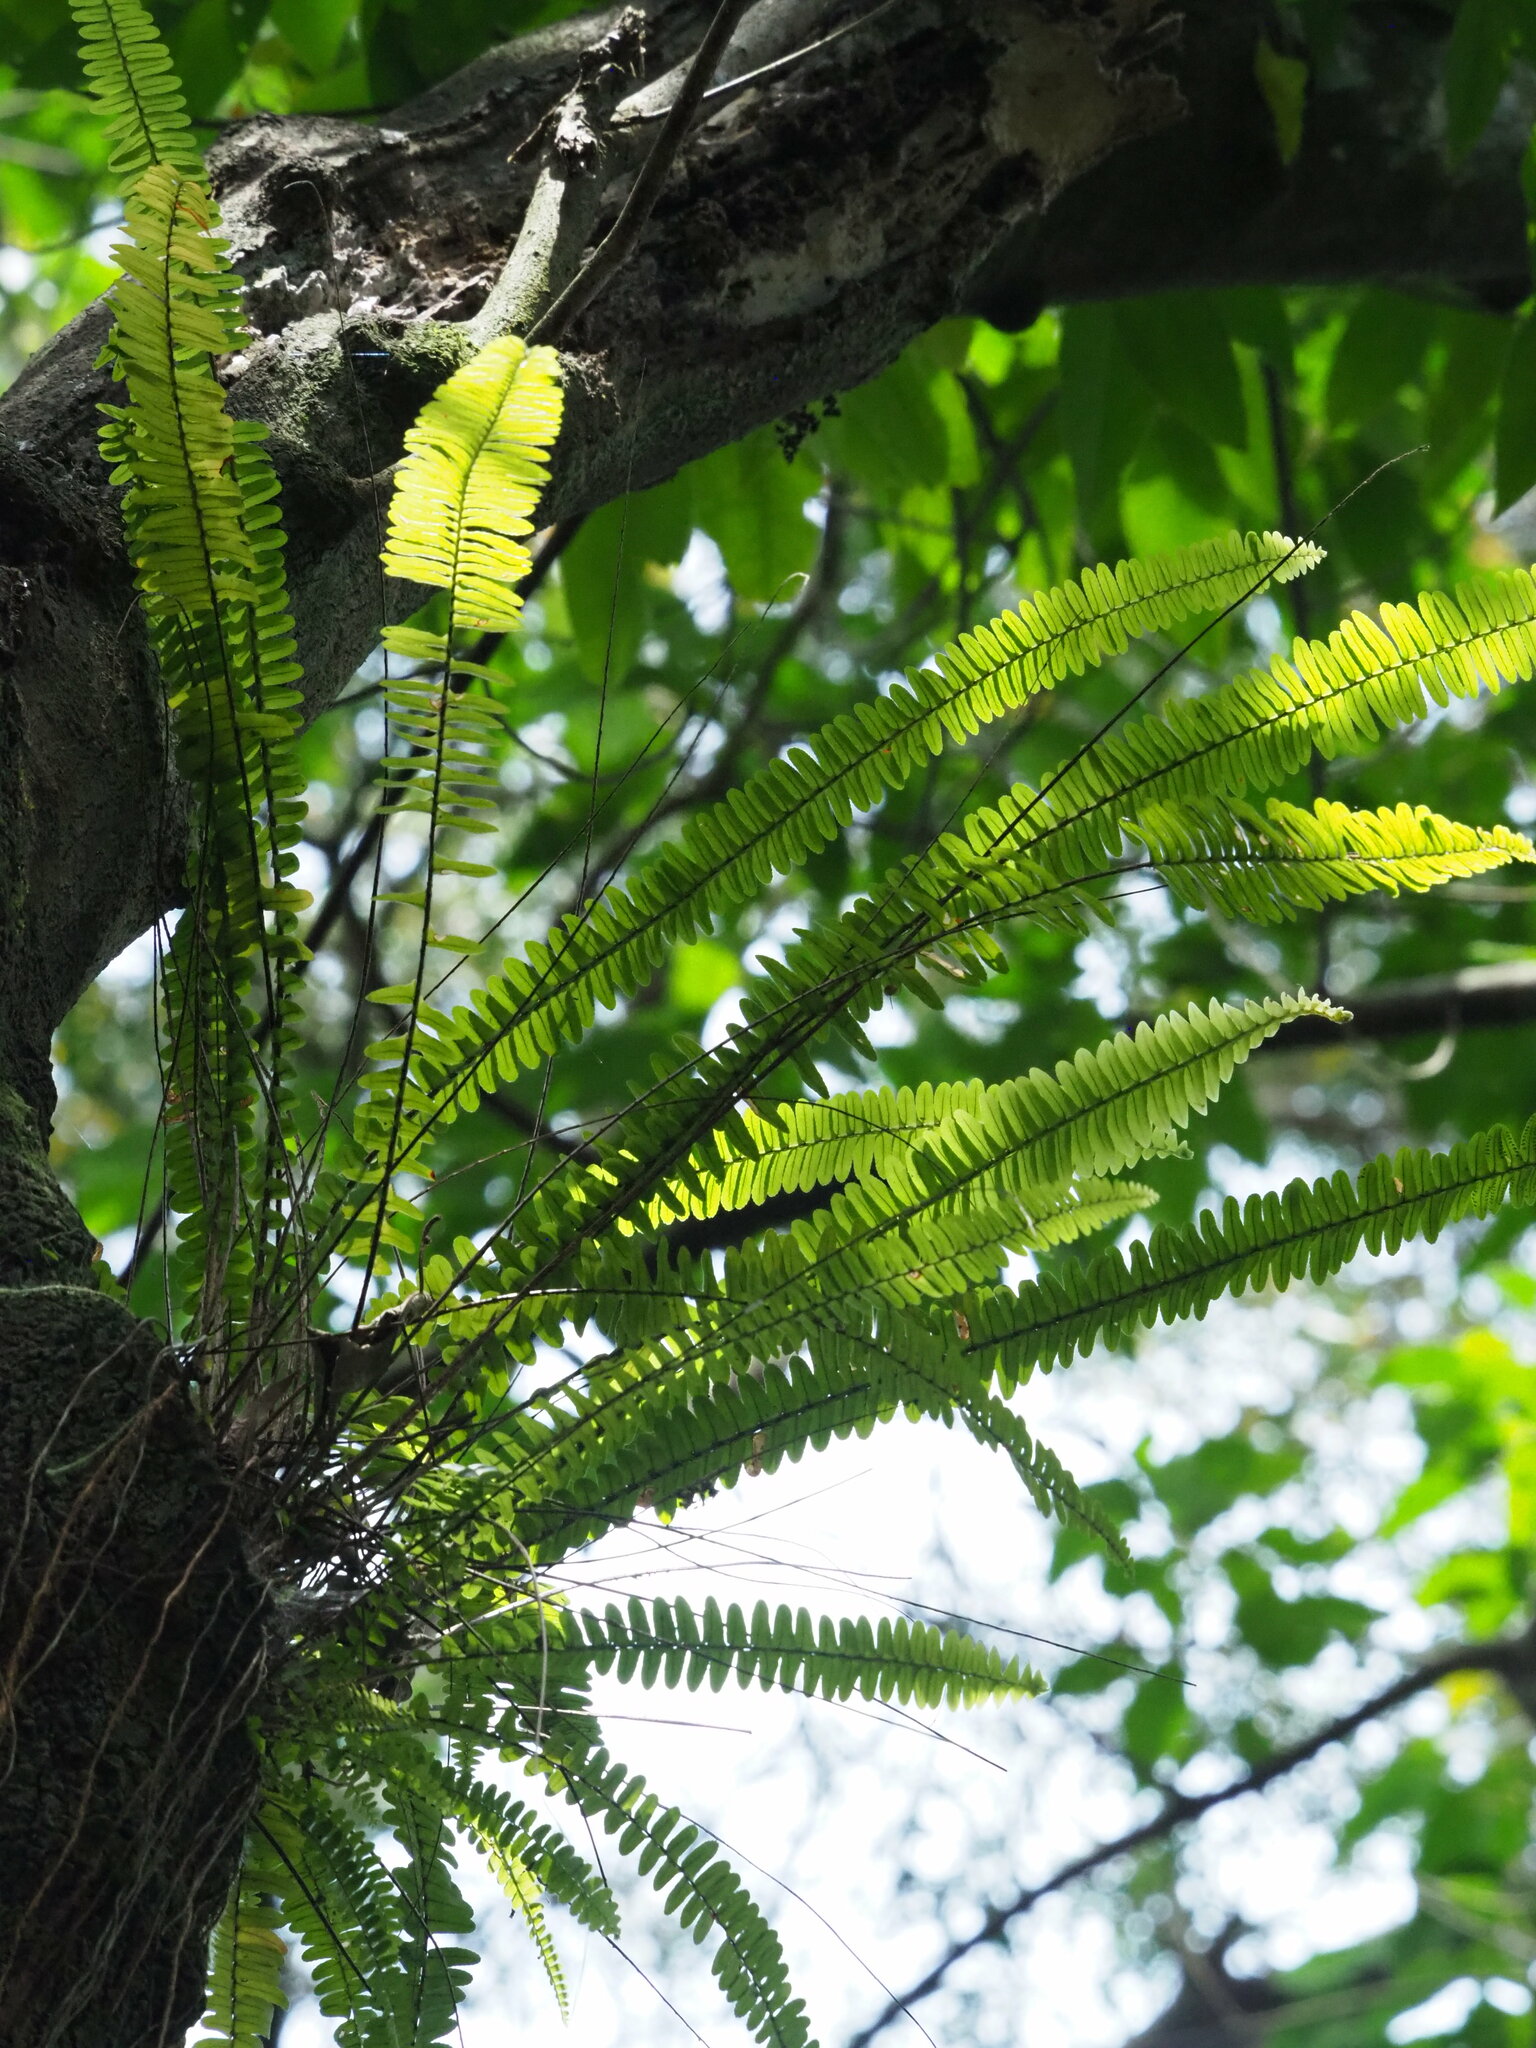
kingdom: Plantae
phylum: Tracheophyta
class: Polypodiopsida
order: Polypodiales
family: Nephrolepidaceae
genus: Nephrolepis
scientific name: Nephrolepis cordifolia
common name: Narrow swordfern
